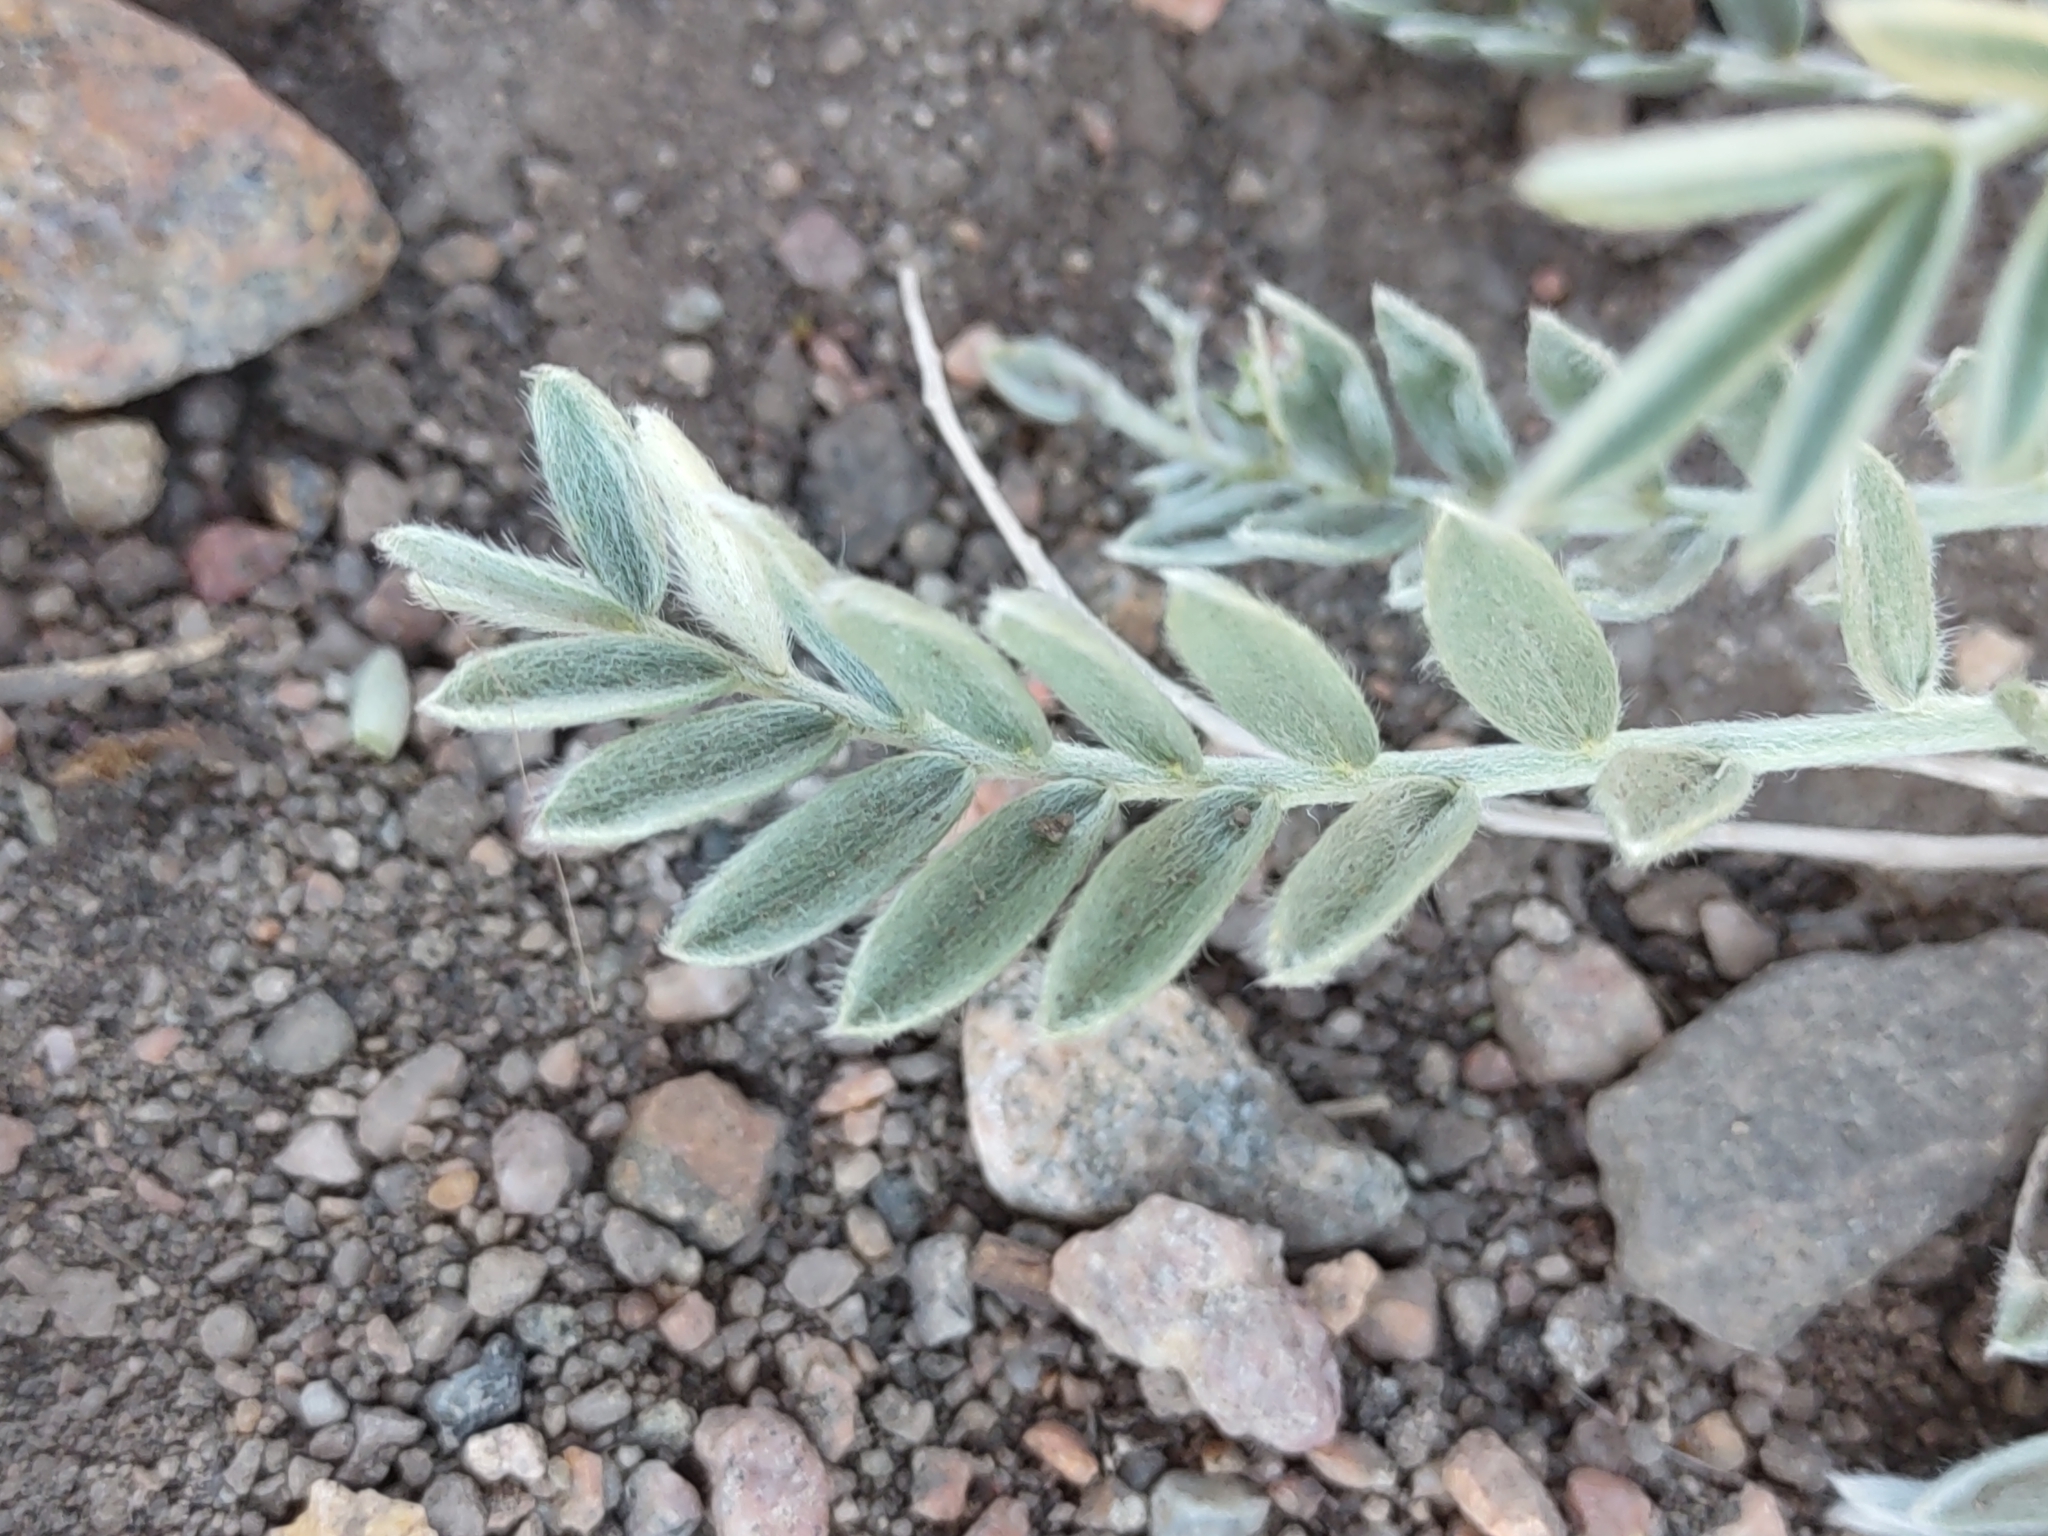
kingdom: Plantae
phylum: Tracheophyta
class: Magnoliopsida
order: Fabales
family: Fabaceae
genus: Oxytropis
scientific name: Oxytropis sericea
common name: Silky locoweed
